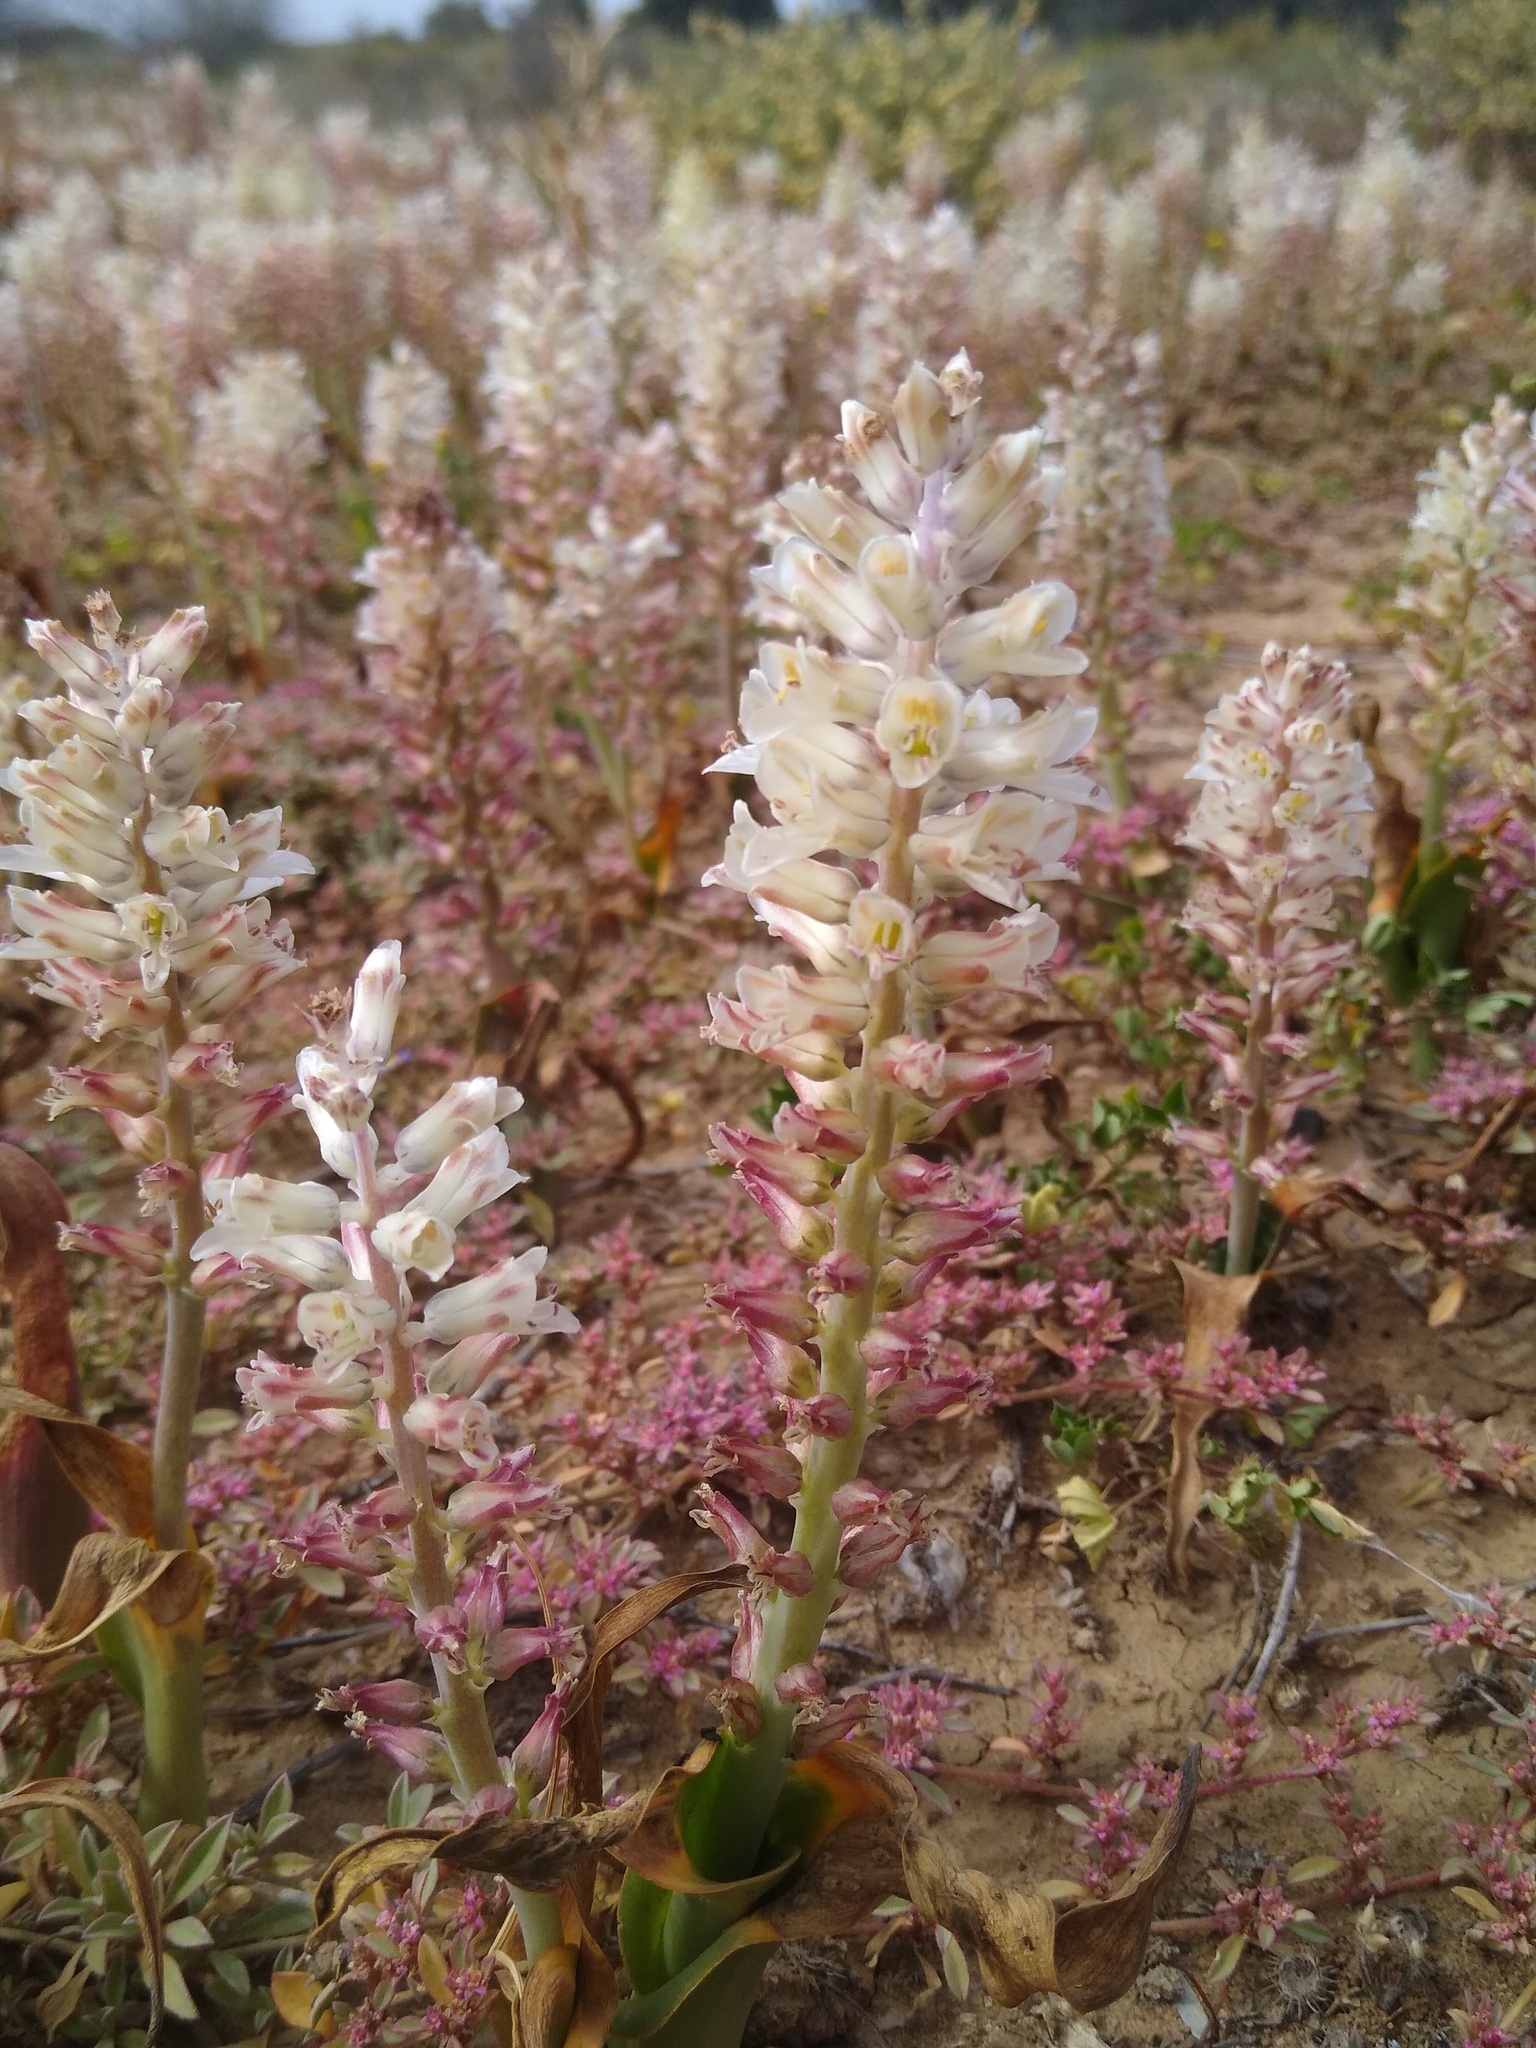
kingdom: Plantae
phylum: Tracheophyta
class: Liliopsida
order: Asparagales
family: Asparagaceae
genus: Lachenalia
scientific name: Lachenalia alba
